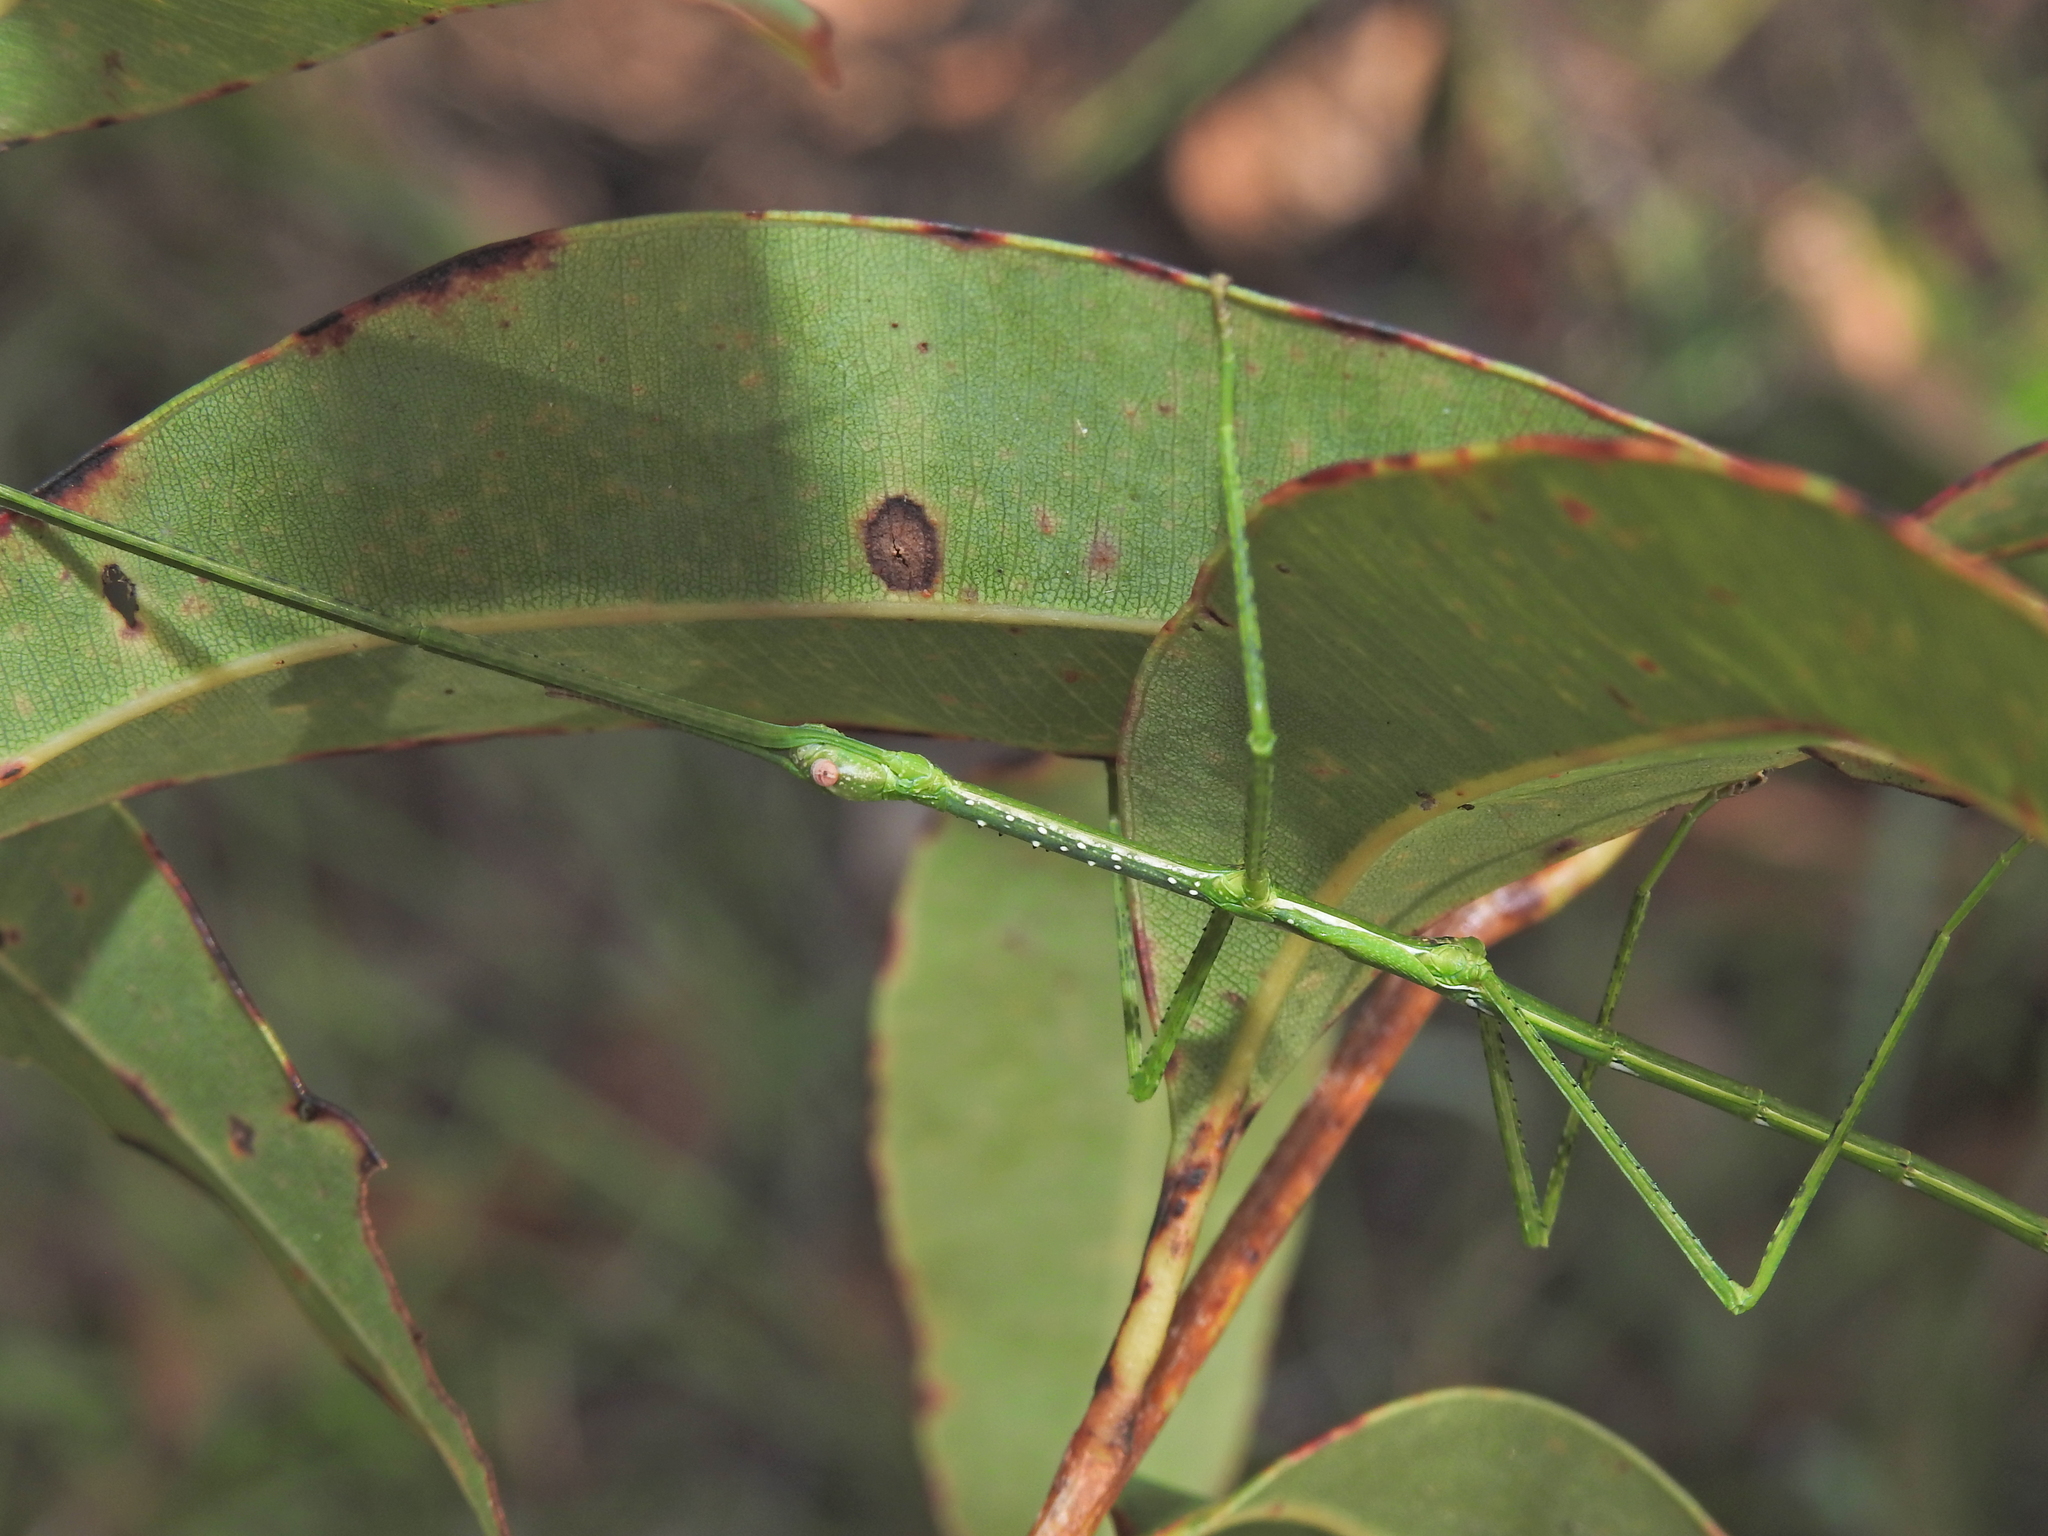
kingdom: Animalia
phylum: Arthropoda
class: Insecta
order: Phasmida
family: Phasmatidae
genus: Anchiale
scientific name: Anchiale austrotessulata
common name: Tessellated stick-insect
